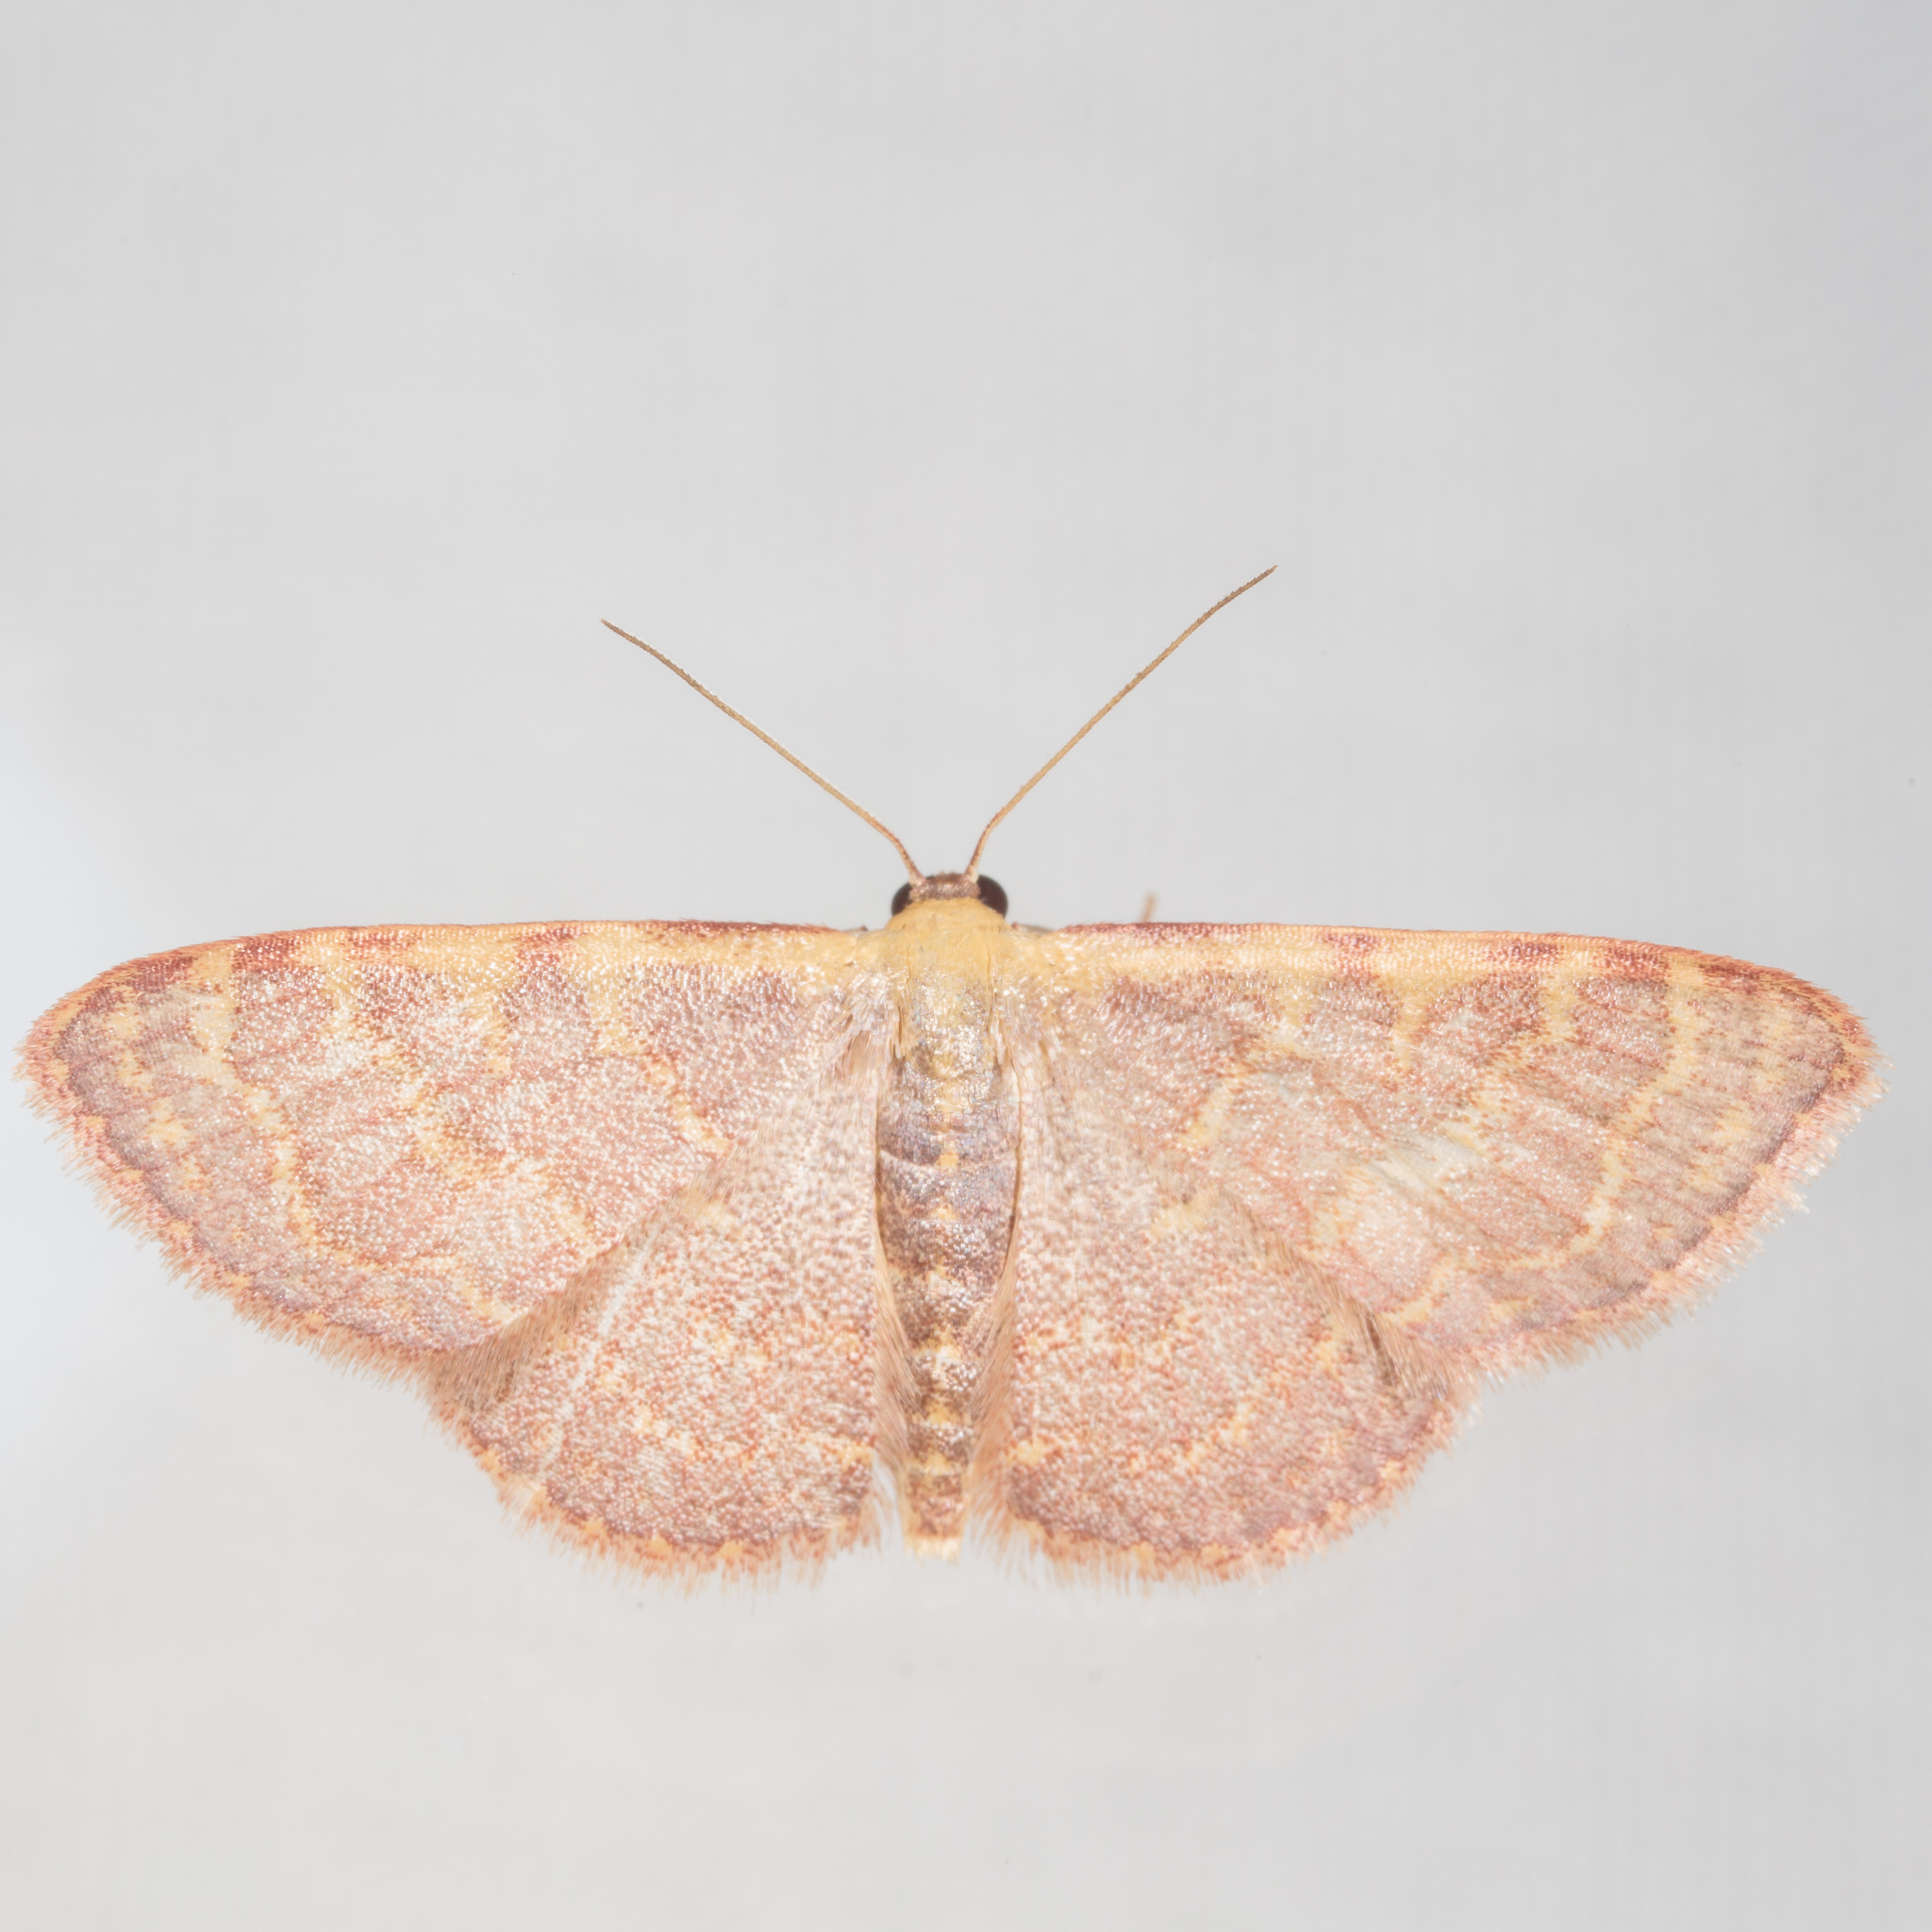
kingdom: Animalia
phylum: Arthropoda
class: Insecta
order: Lepidoptera
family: Geometridae
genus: Leptostales
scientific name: Leptostales pannaria
